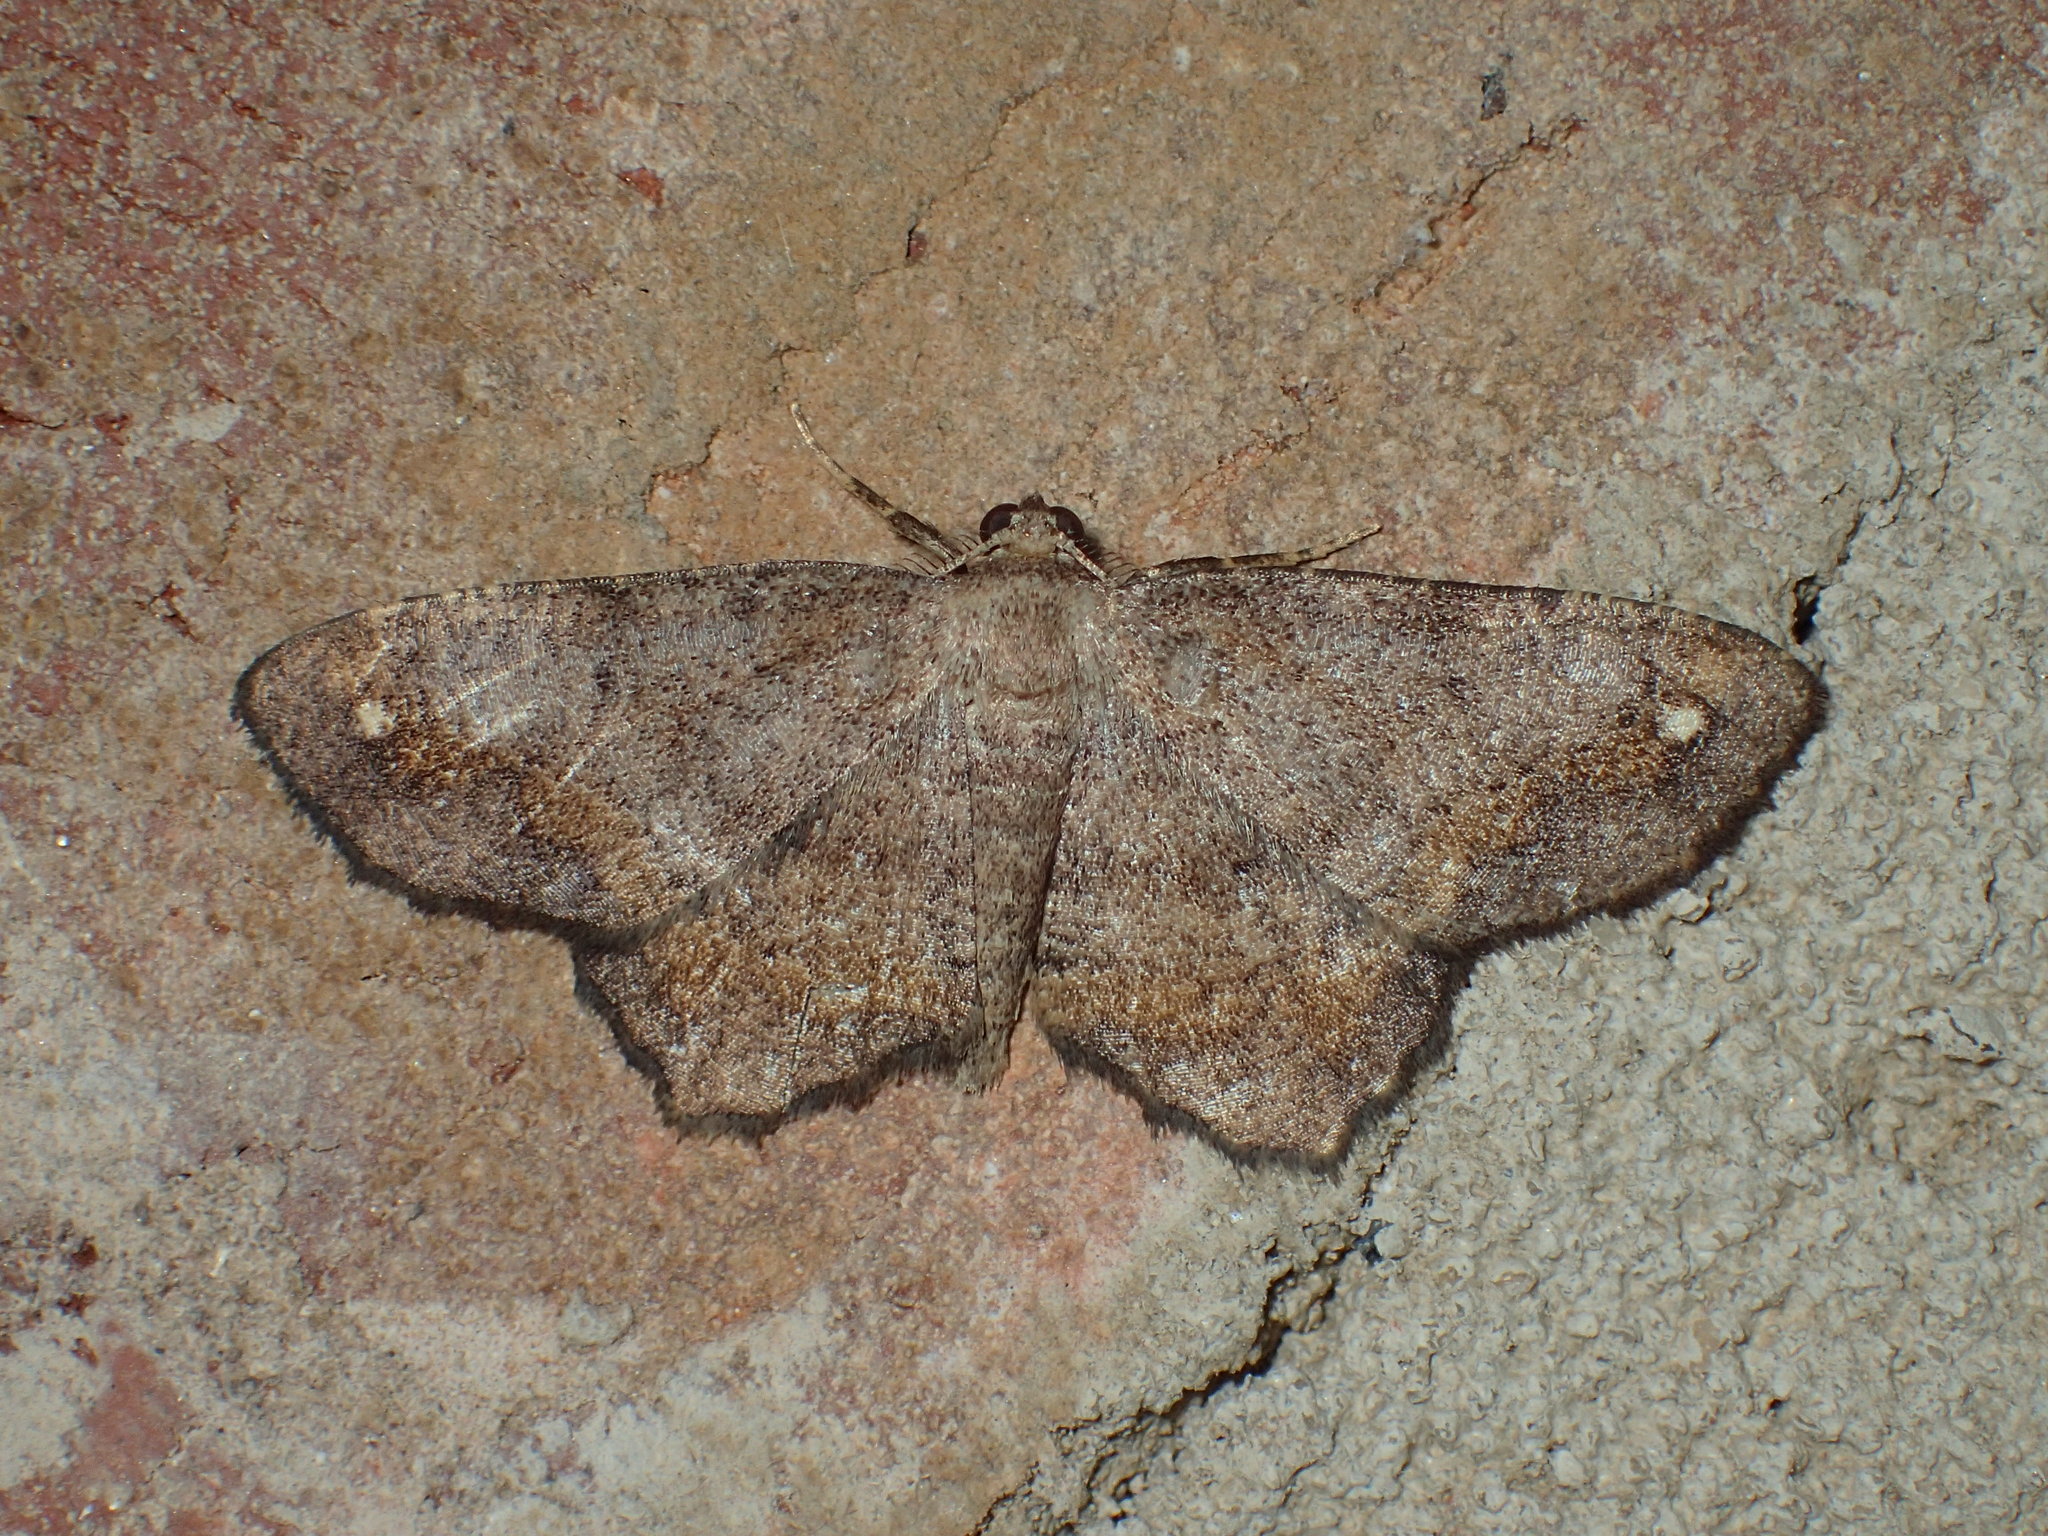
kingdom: Animalia
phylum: Arthropoda
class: Insecta
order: Lepidoptera
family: Geometridae
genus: Hypagyrtis
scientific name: Hypagyrtis unipunctata
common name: One-spotted variant
